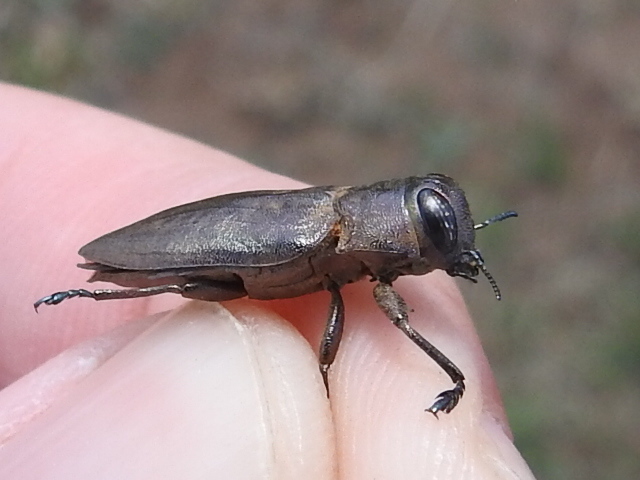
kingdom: Animalia
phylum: Arthropoda
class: Insecta
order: Coleoptera
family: Buprestidae
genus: Actenodes
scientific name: Actenodes mendax
